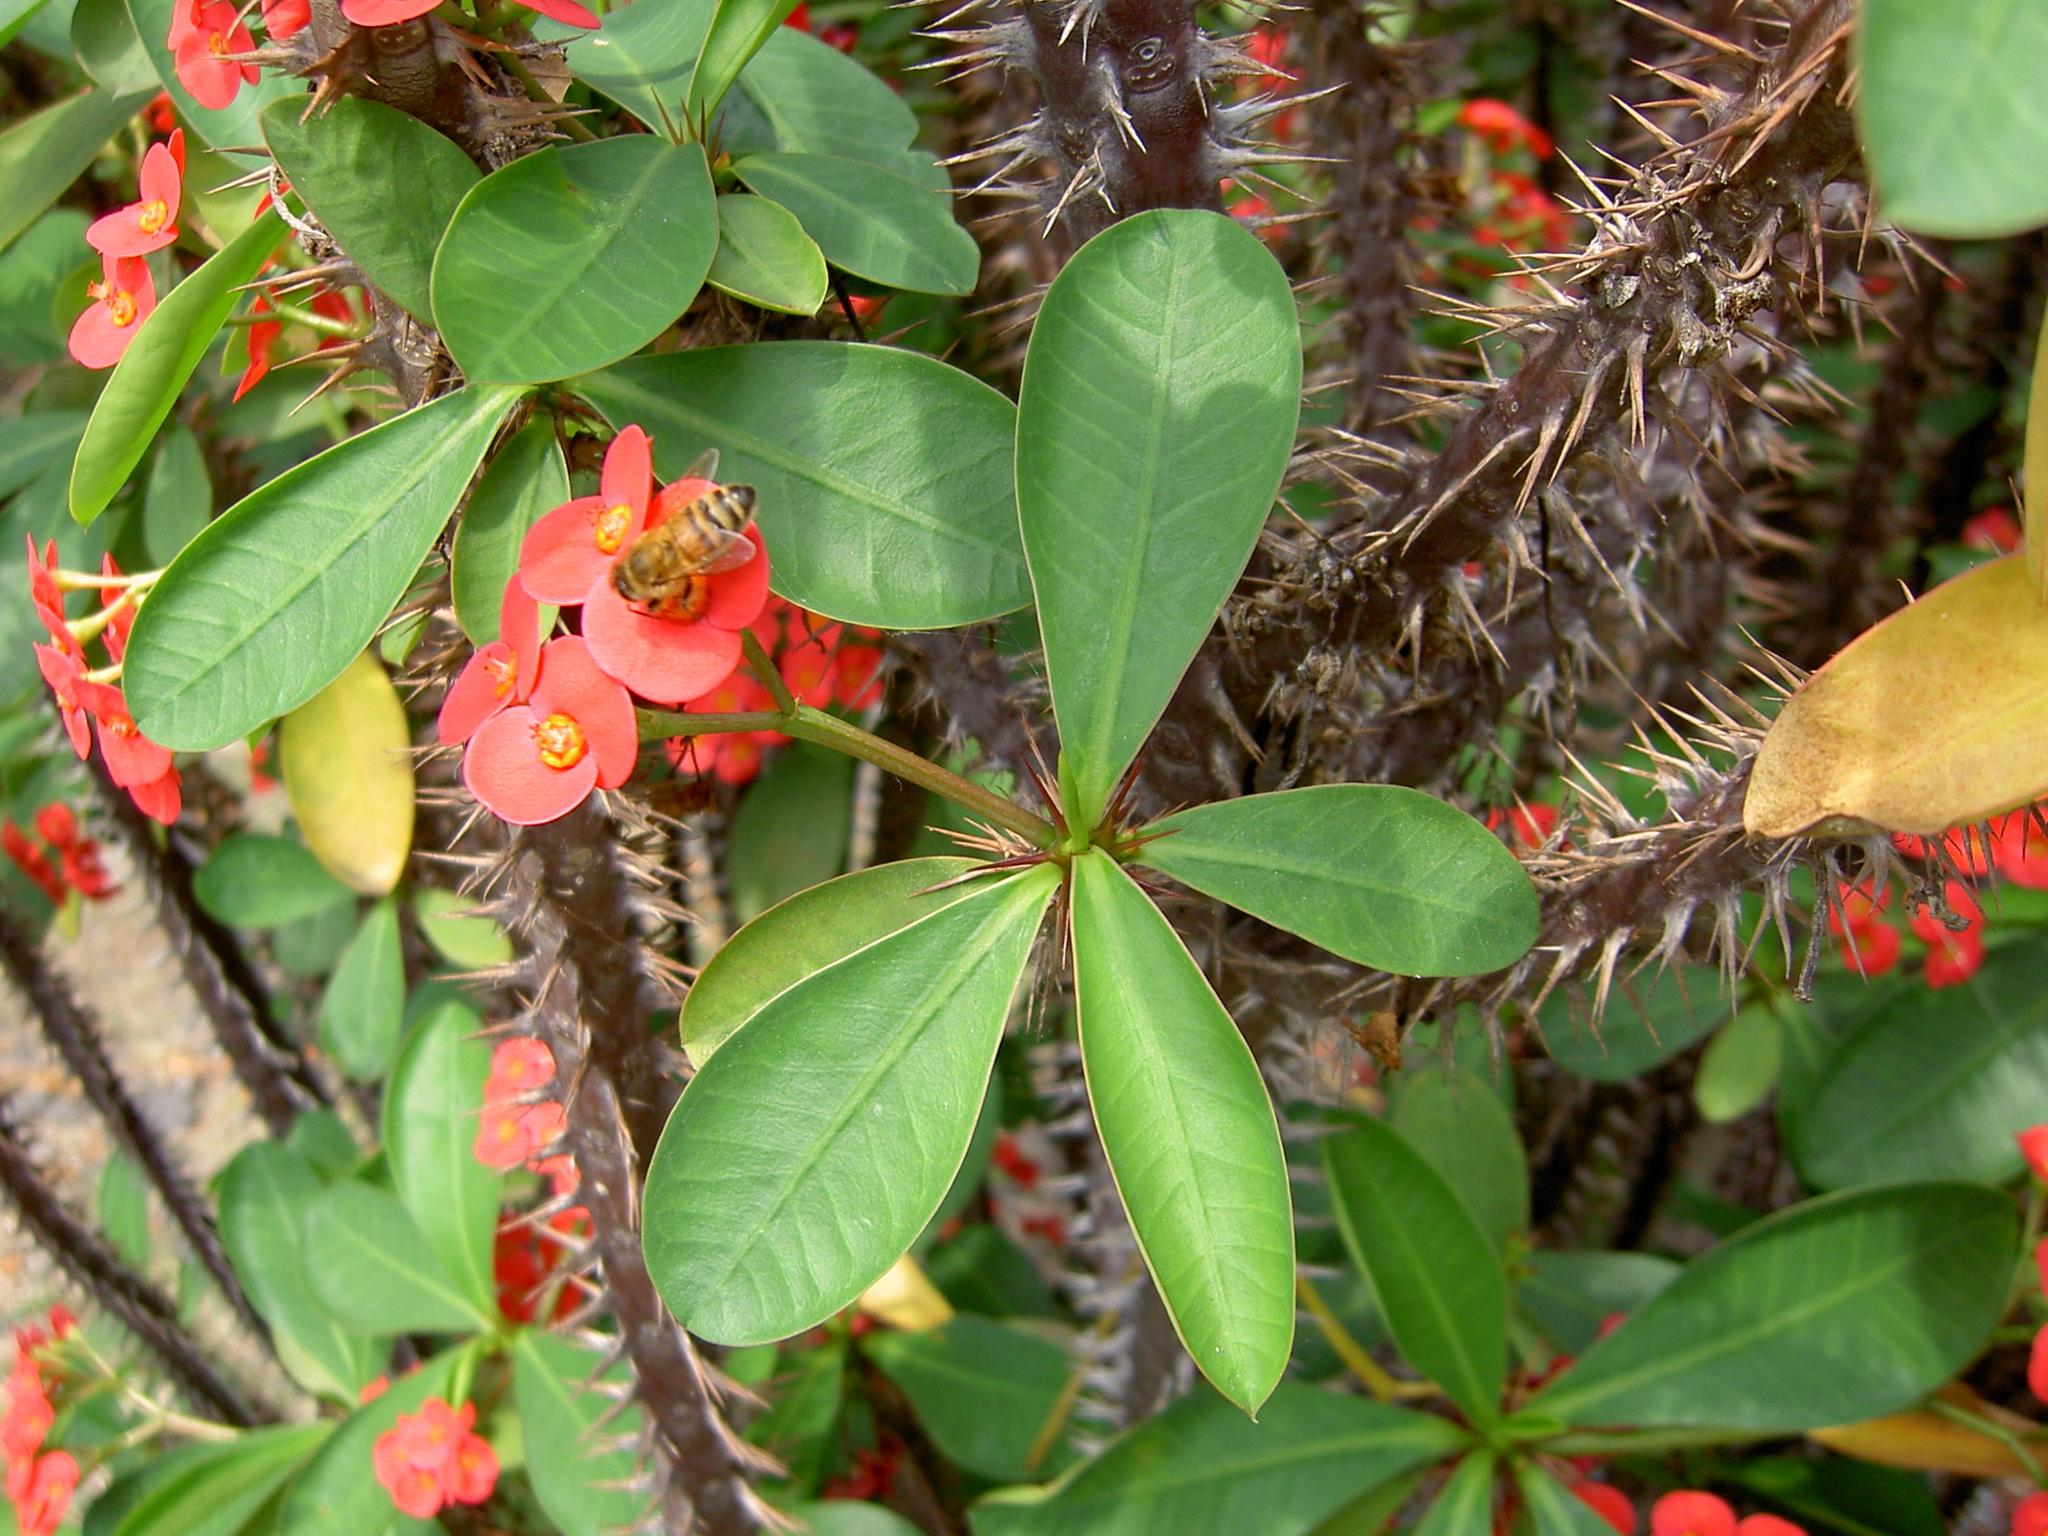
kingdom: Animalia
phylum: Arthropoda
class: Insecta
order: Hymenoptera
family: Apidae
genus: Apis
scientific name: Apis mellifera
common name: Honey bee
